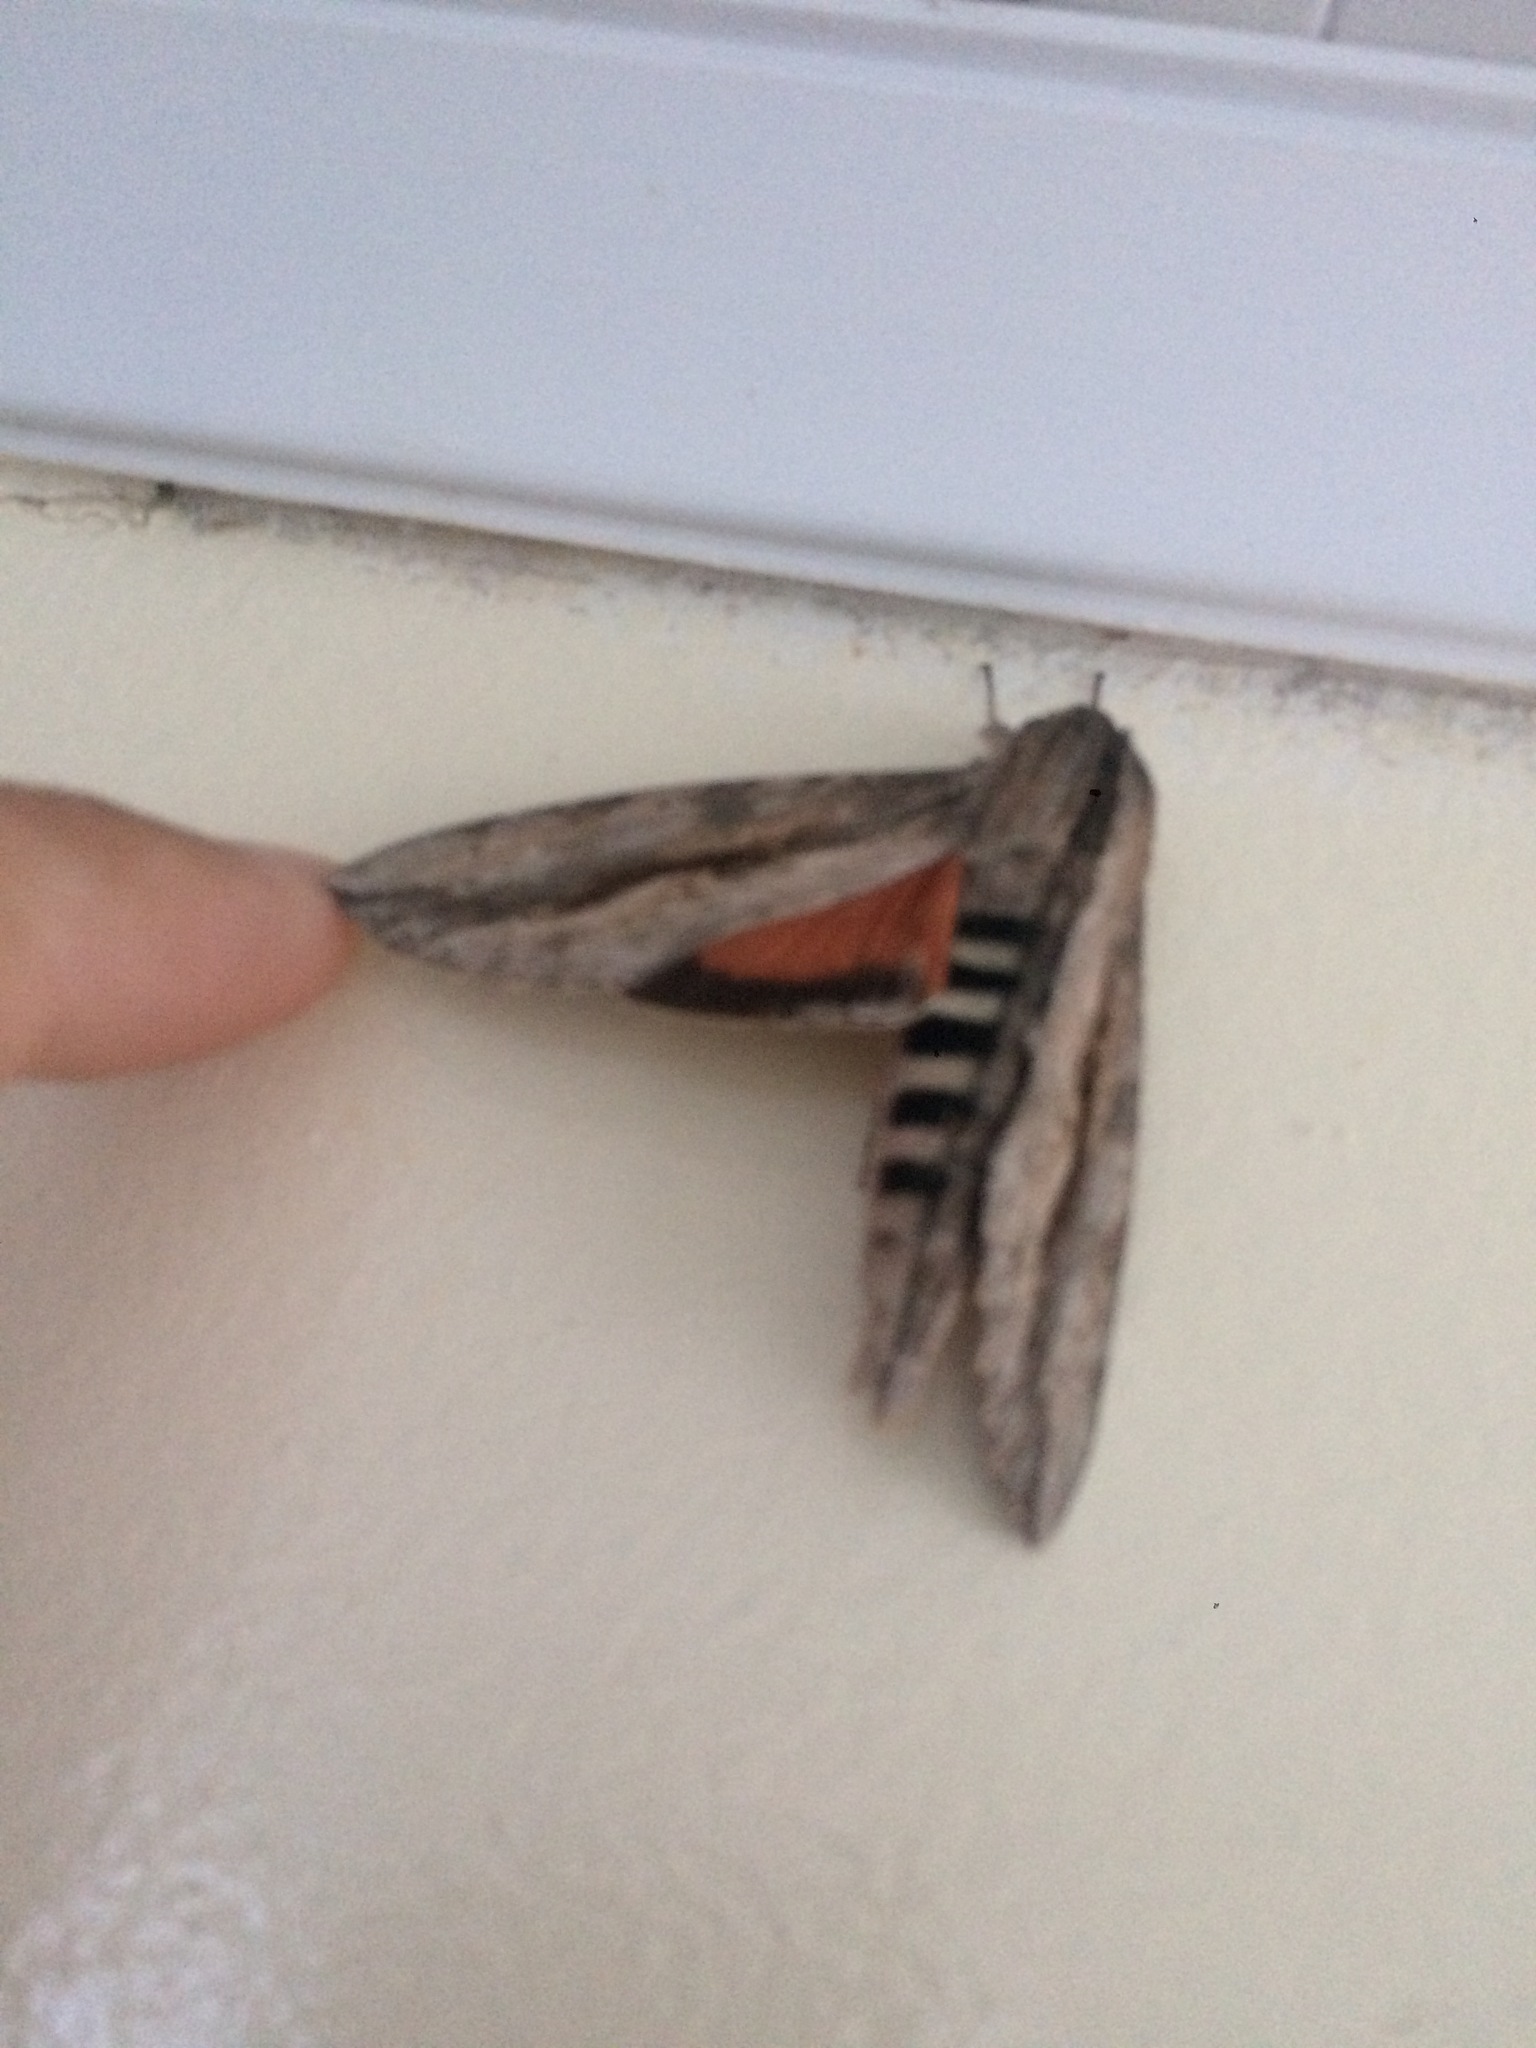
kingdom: Animalia
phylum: Arthropoda
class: Insecta
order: Lepidoptera
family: Sphingidae
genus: Erinnyis
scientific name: Erinnyis ello
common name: Ello sphinx
